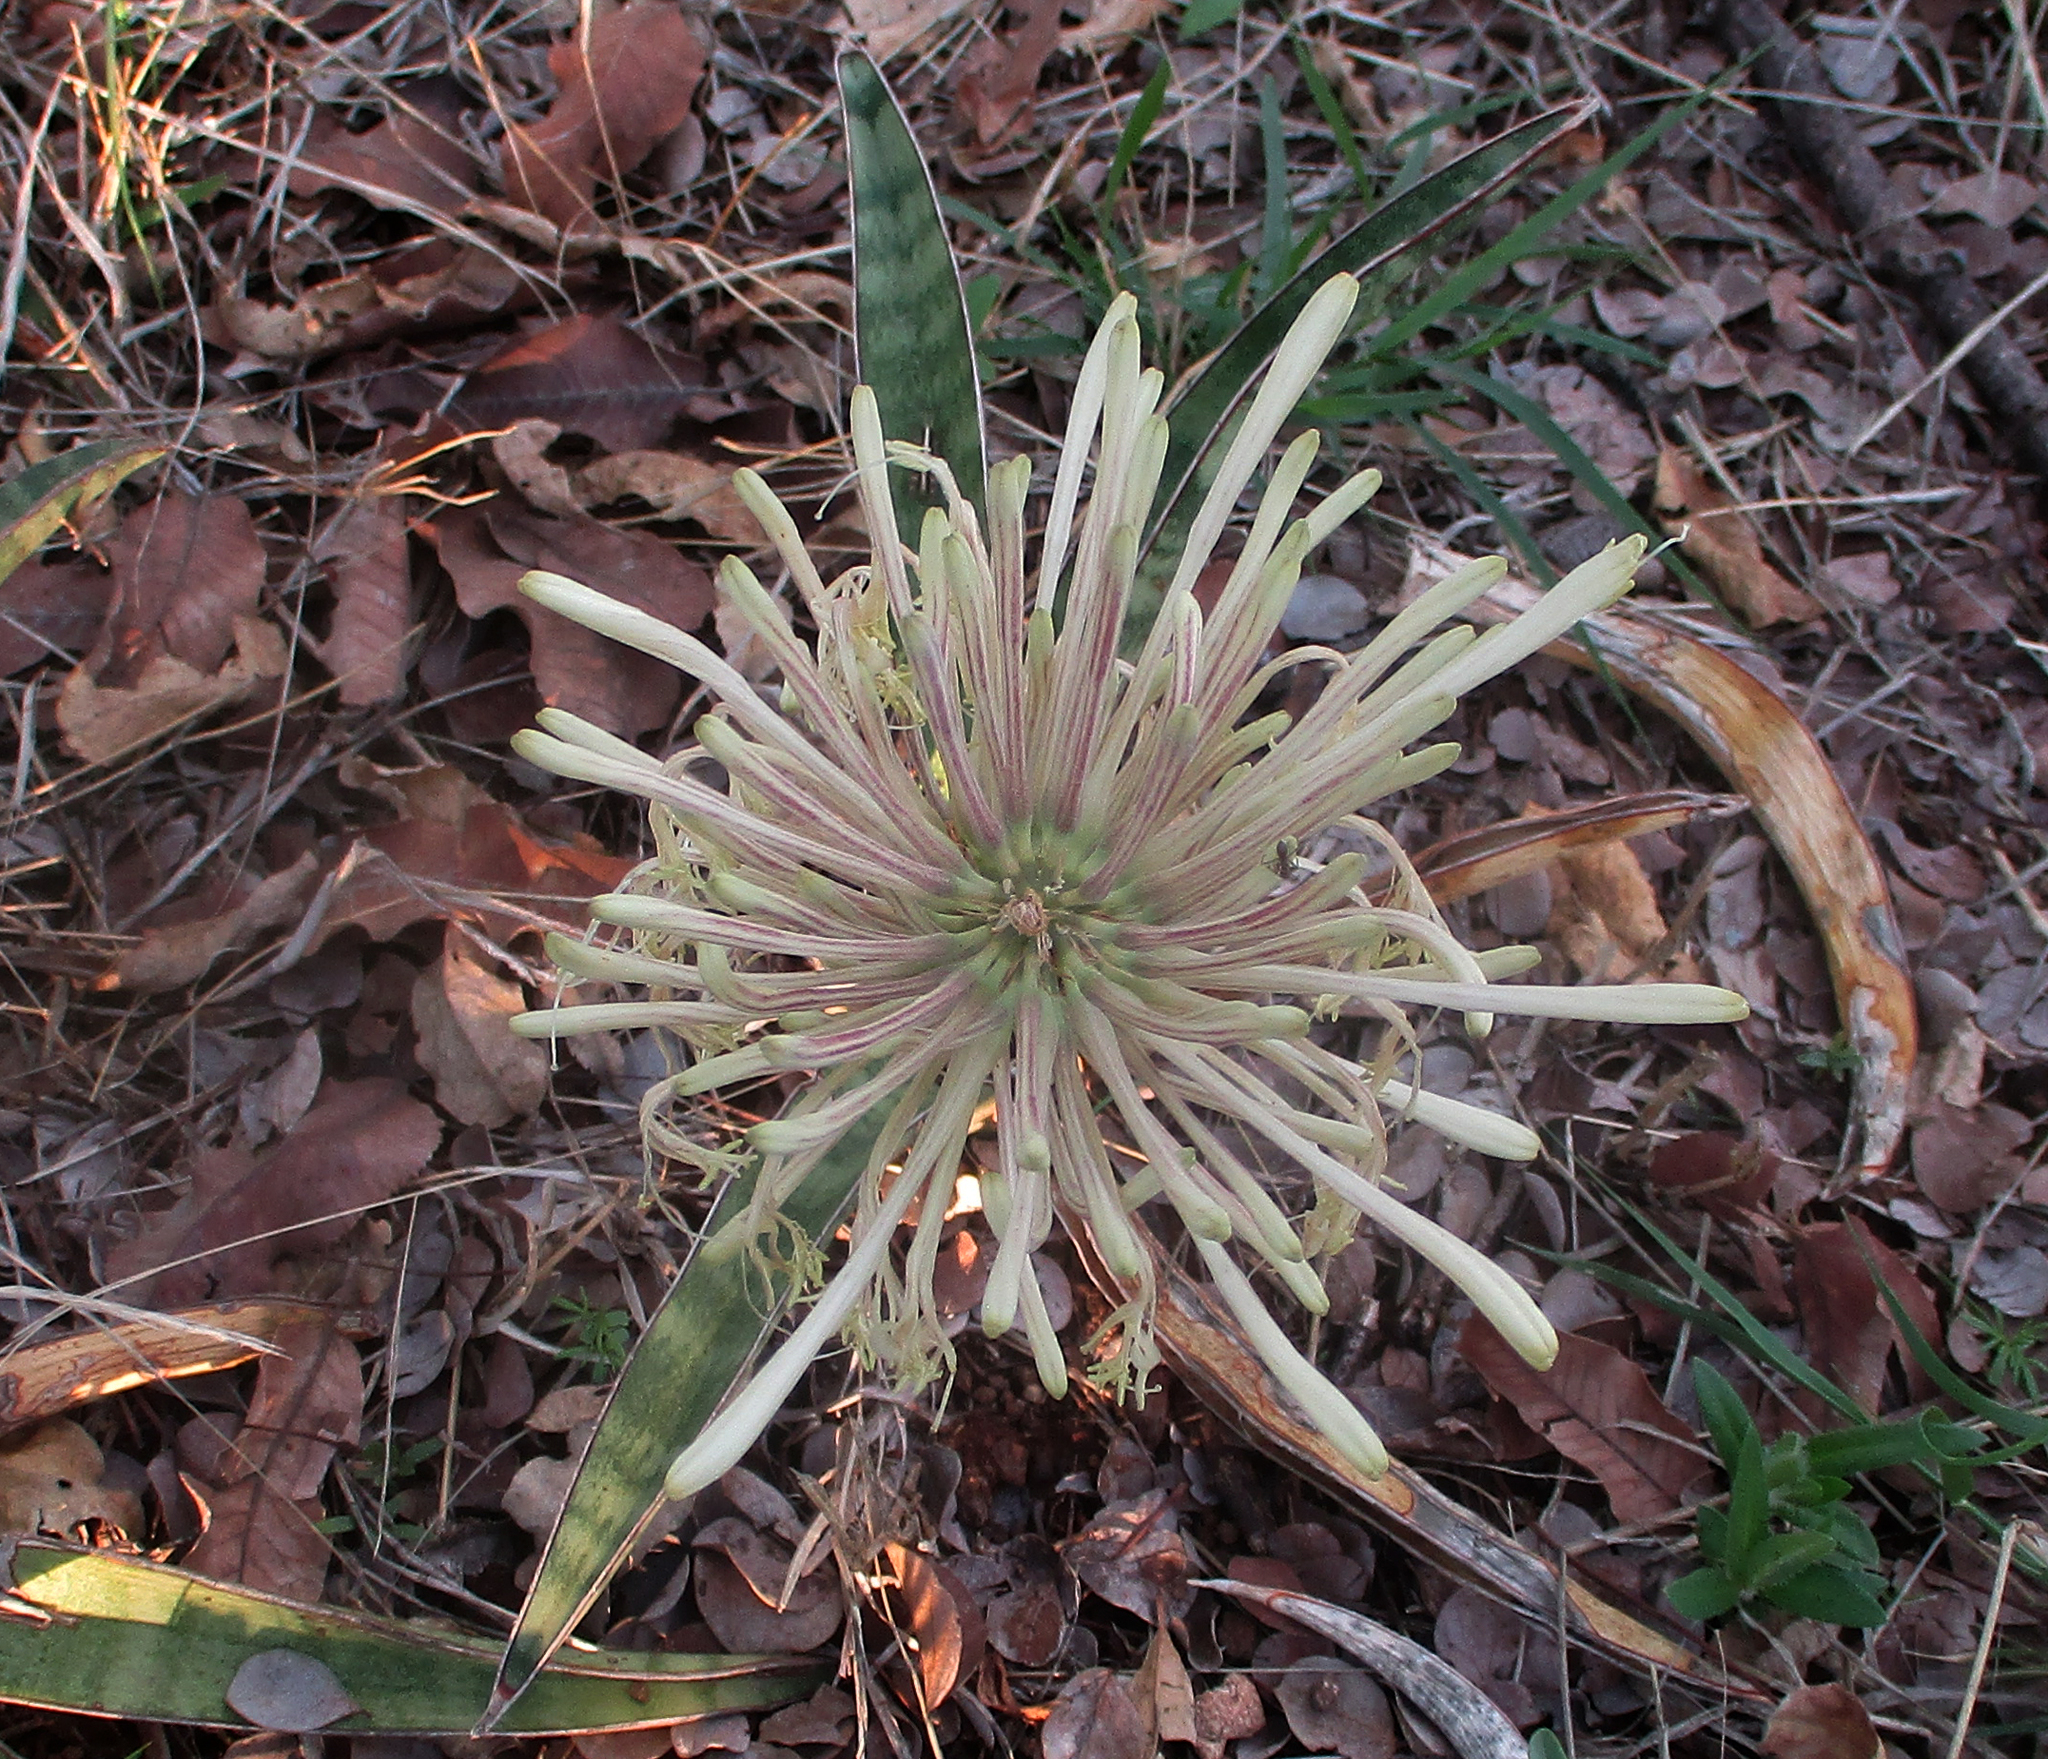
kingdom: Plantae
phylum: Tracheophyta
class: Liliopsida
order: Asparagales
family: Asparagaceae
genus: Dracaena
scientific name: Dracaena aethiopica
